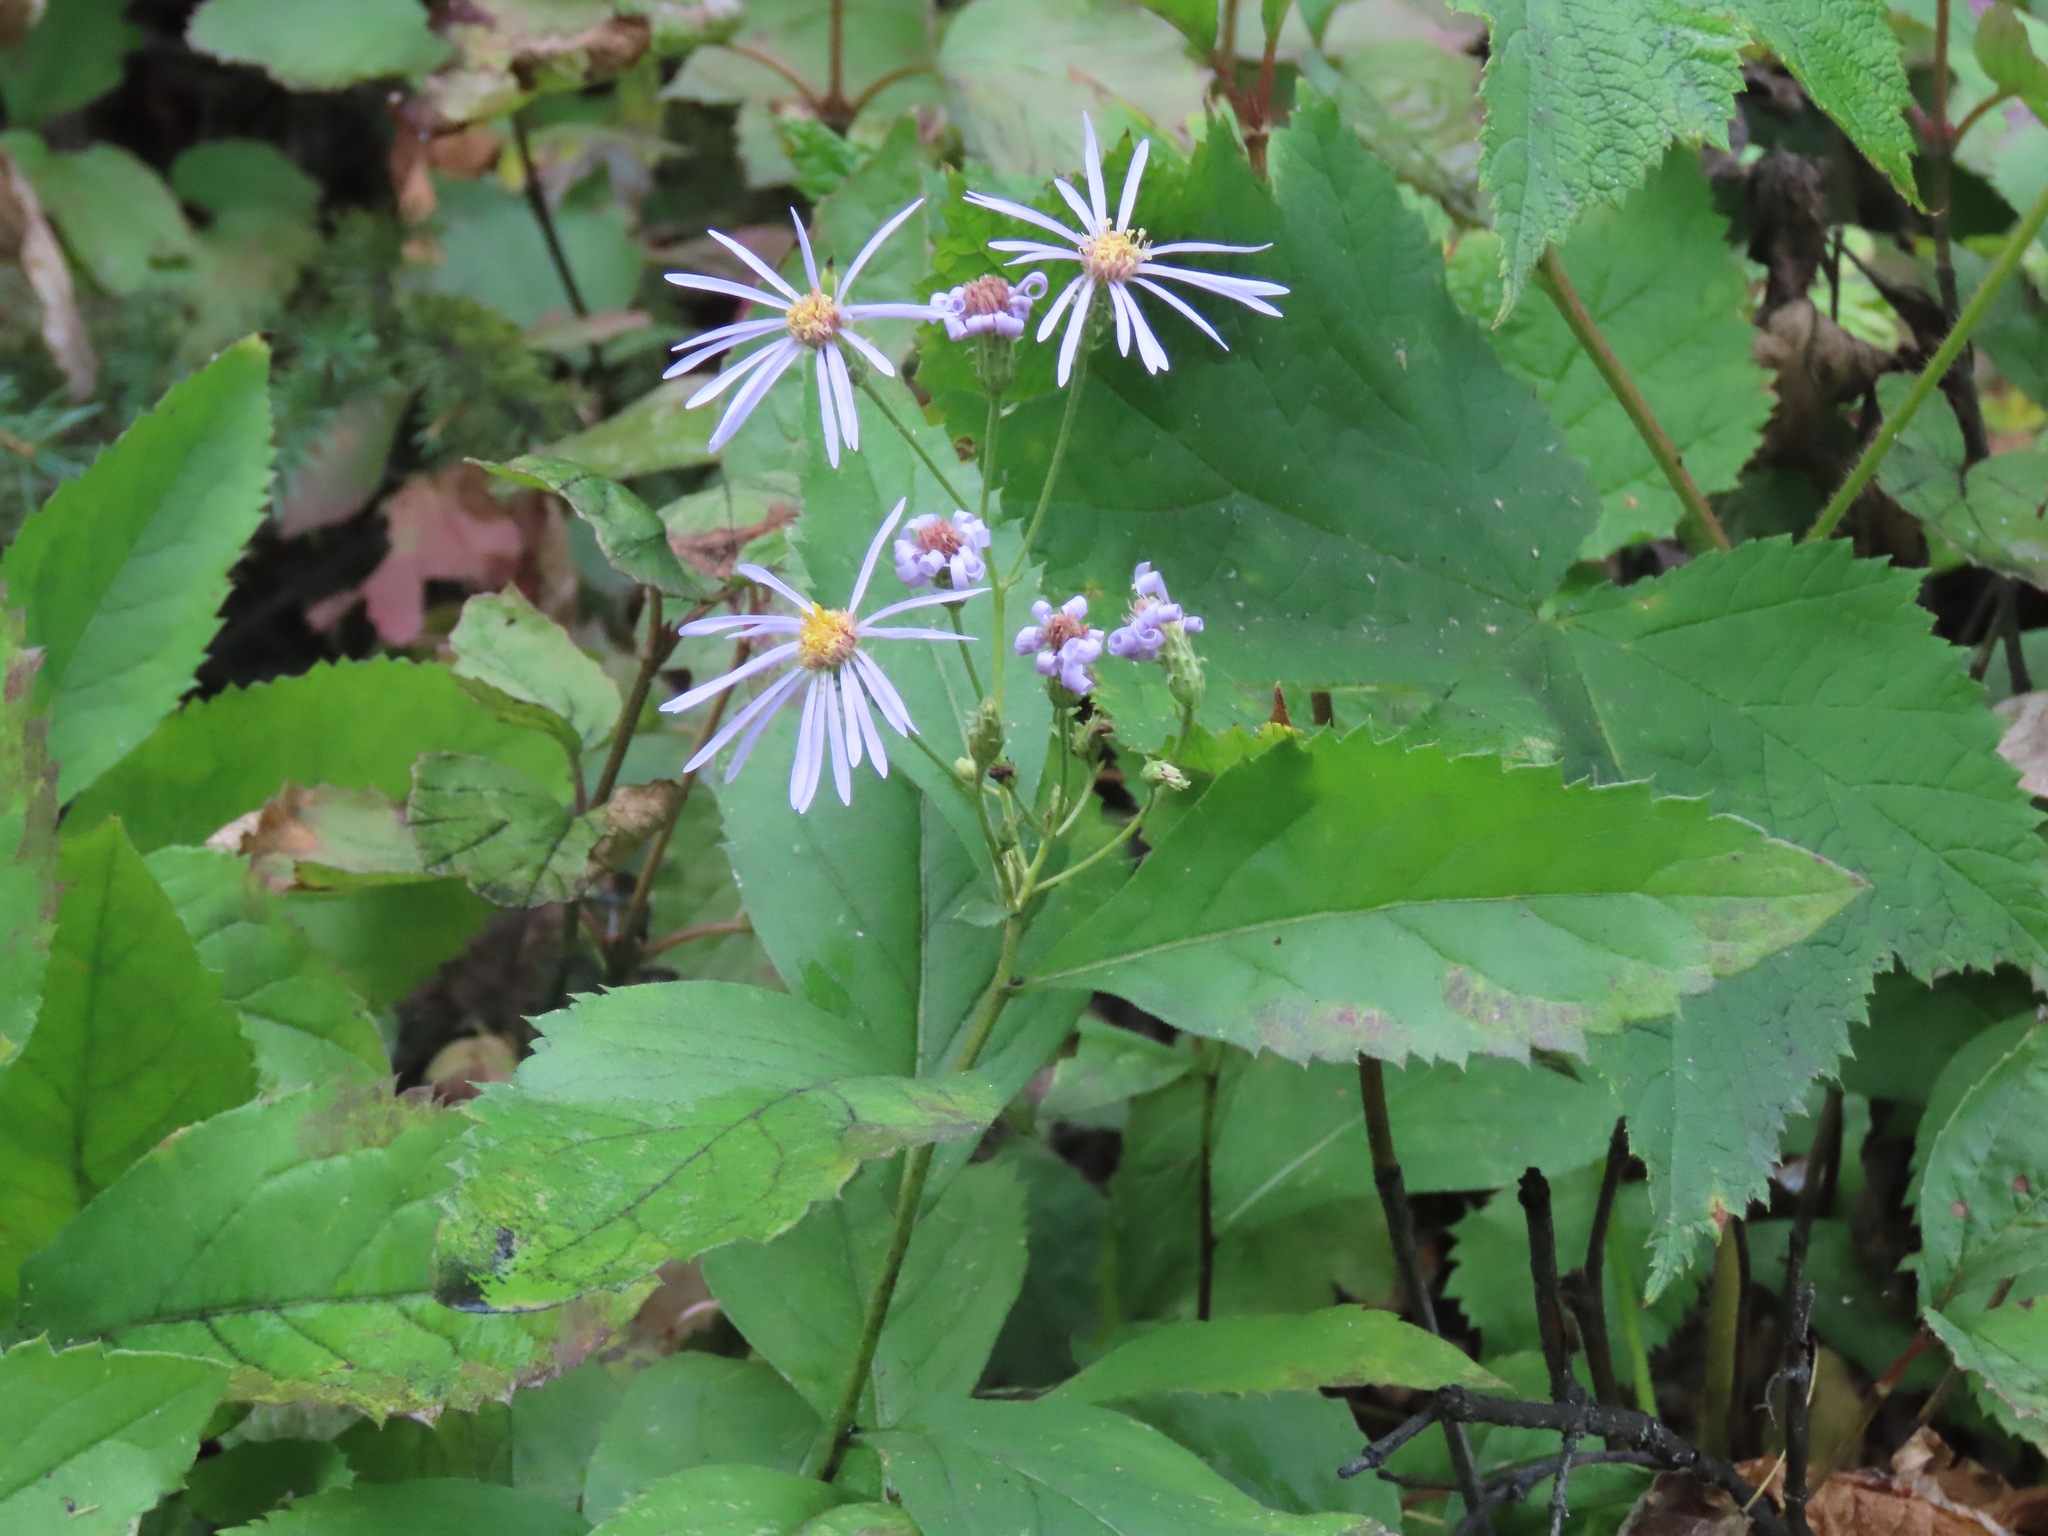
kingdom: Plantae
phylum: Tracheophyta
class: Magnoliopsida
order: Asterales
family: Asteraceae
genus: Eurybia
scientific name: Eurybia conspicua
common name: Showy aster
